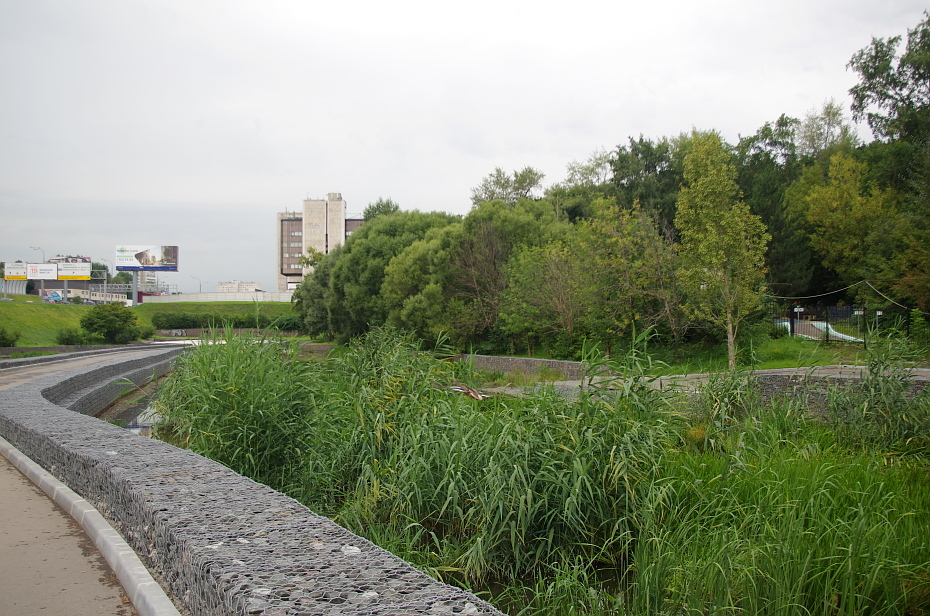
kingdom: Plantae
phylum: Tracheophyta
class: Liliopsida
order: Poales
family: Poaceae
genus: Phragmites
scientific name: Phragmites australis
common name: Common reed
